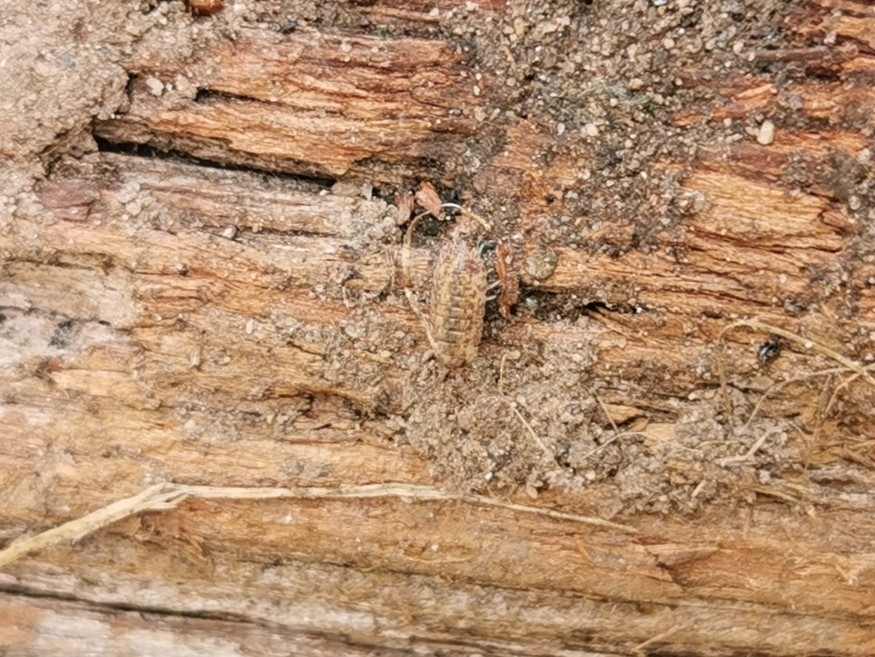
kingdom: Animalia
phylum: Arthropoda
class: Malacostraca
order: Isopoda
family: Porcellionidae
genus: Porcellio
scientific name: Porcellio scaber
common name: Common rough woodlouse
